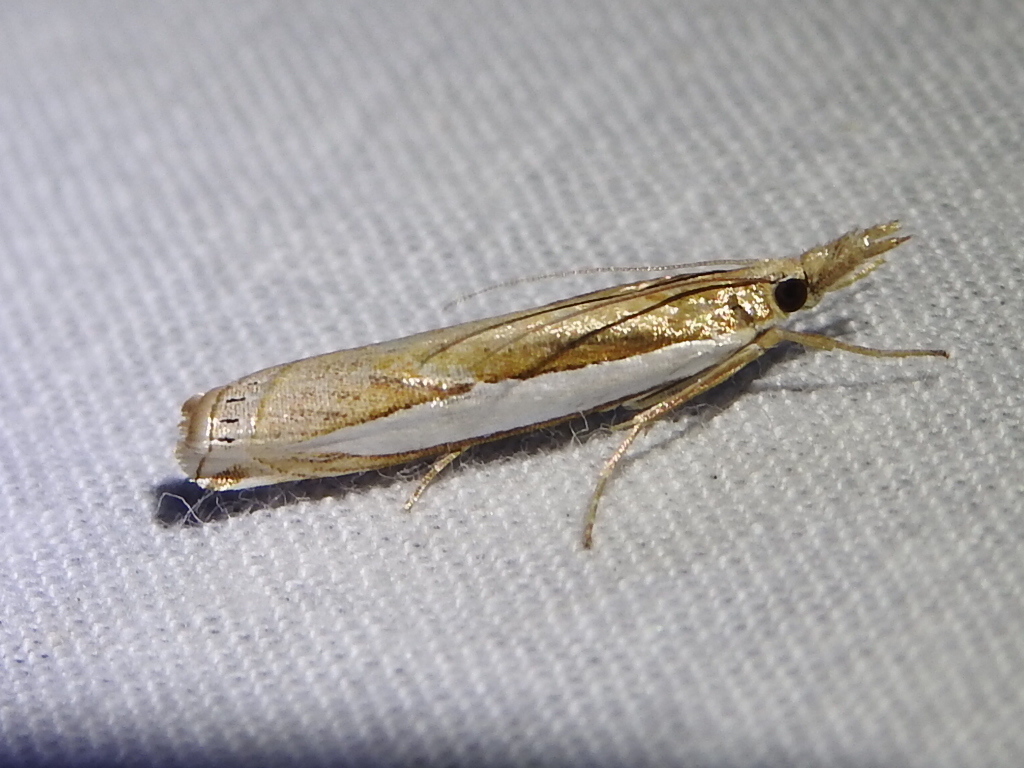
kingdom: Animalia
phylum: Arthropoda
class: Insecta
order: Lepidoptera
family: Crambidae
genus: Crambus
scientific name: Crambus quinquareatus
